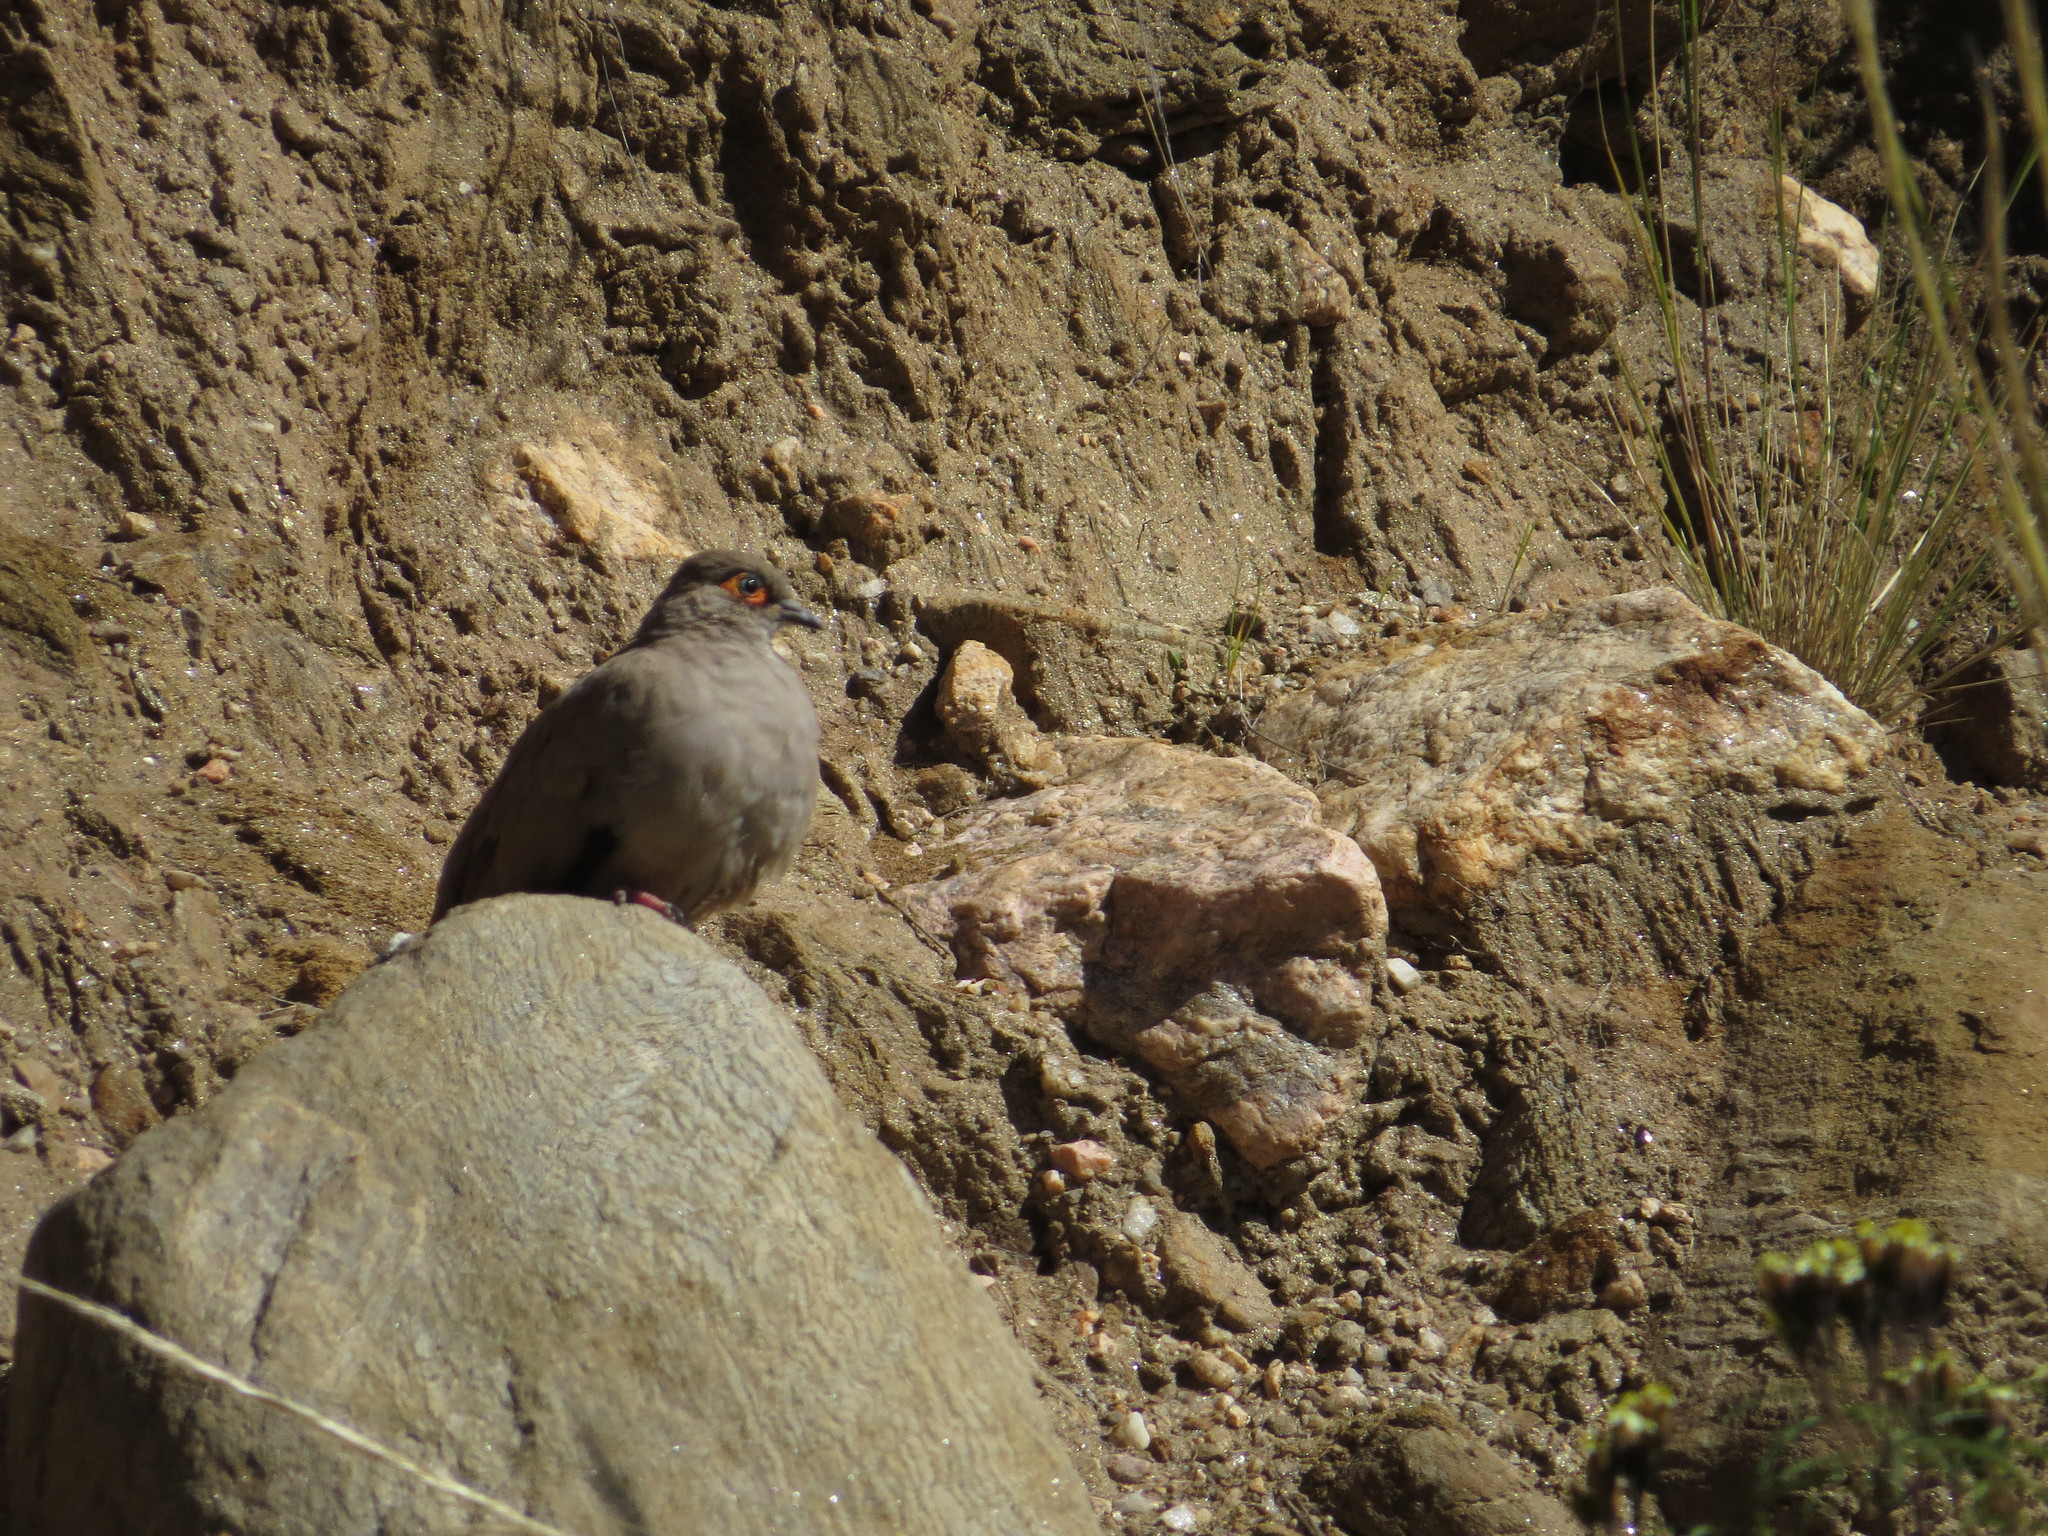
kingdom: Animalia
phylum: Chordata
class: Aves
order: Columbiformes
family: Columbidae
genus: Metriopelia
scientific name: Metriopelia morenoi
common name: Moreno's ground dove
